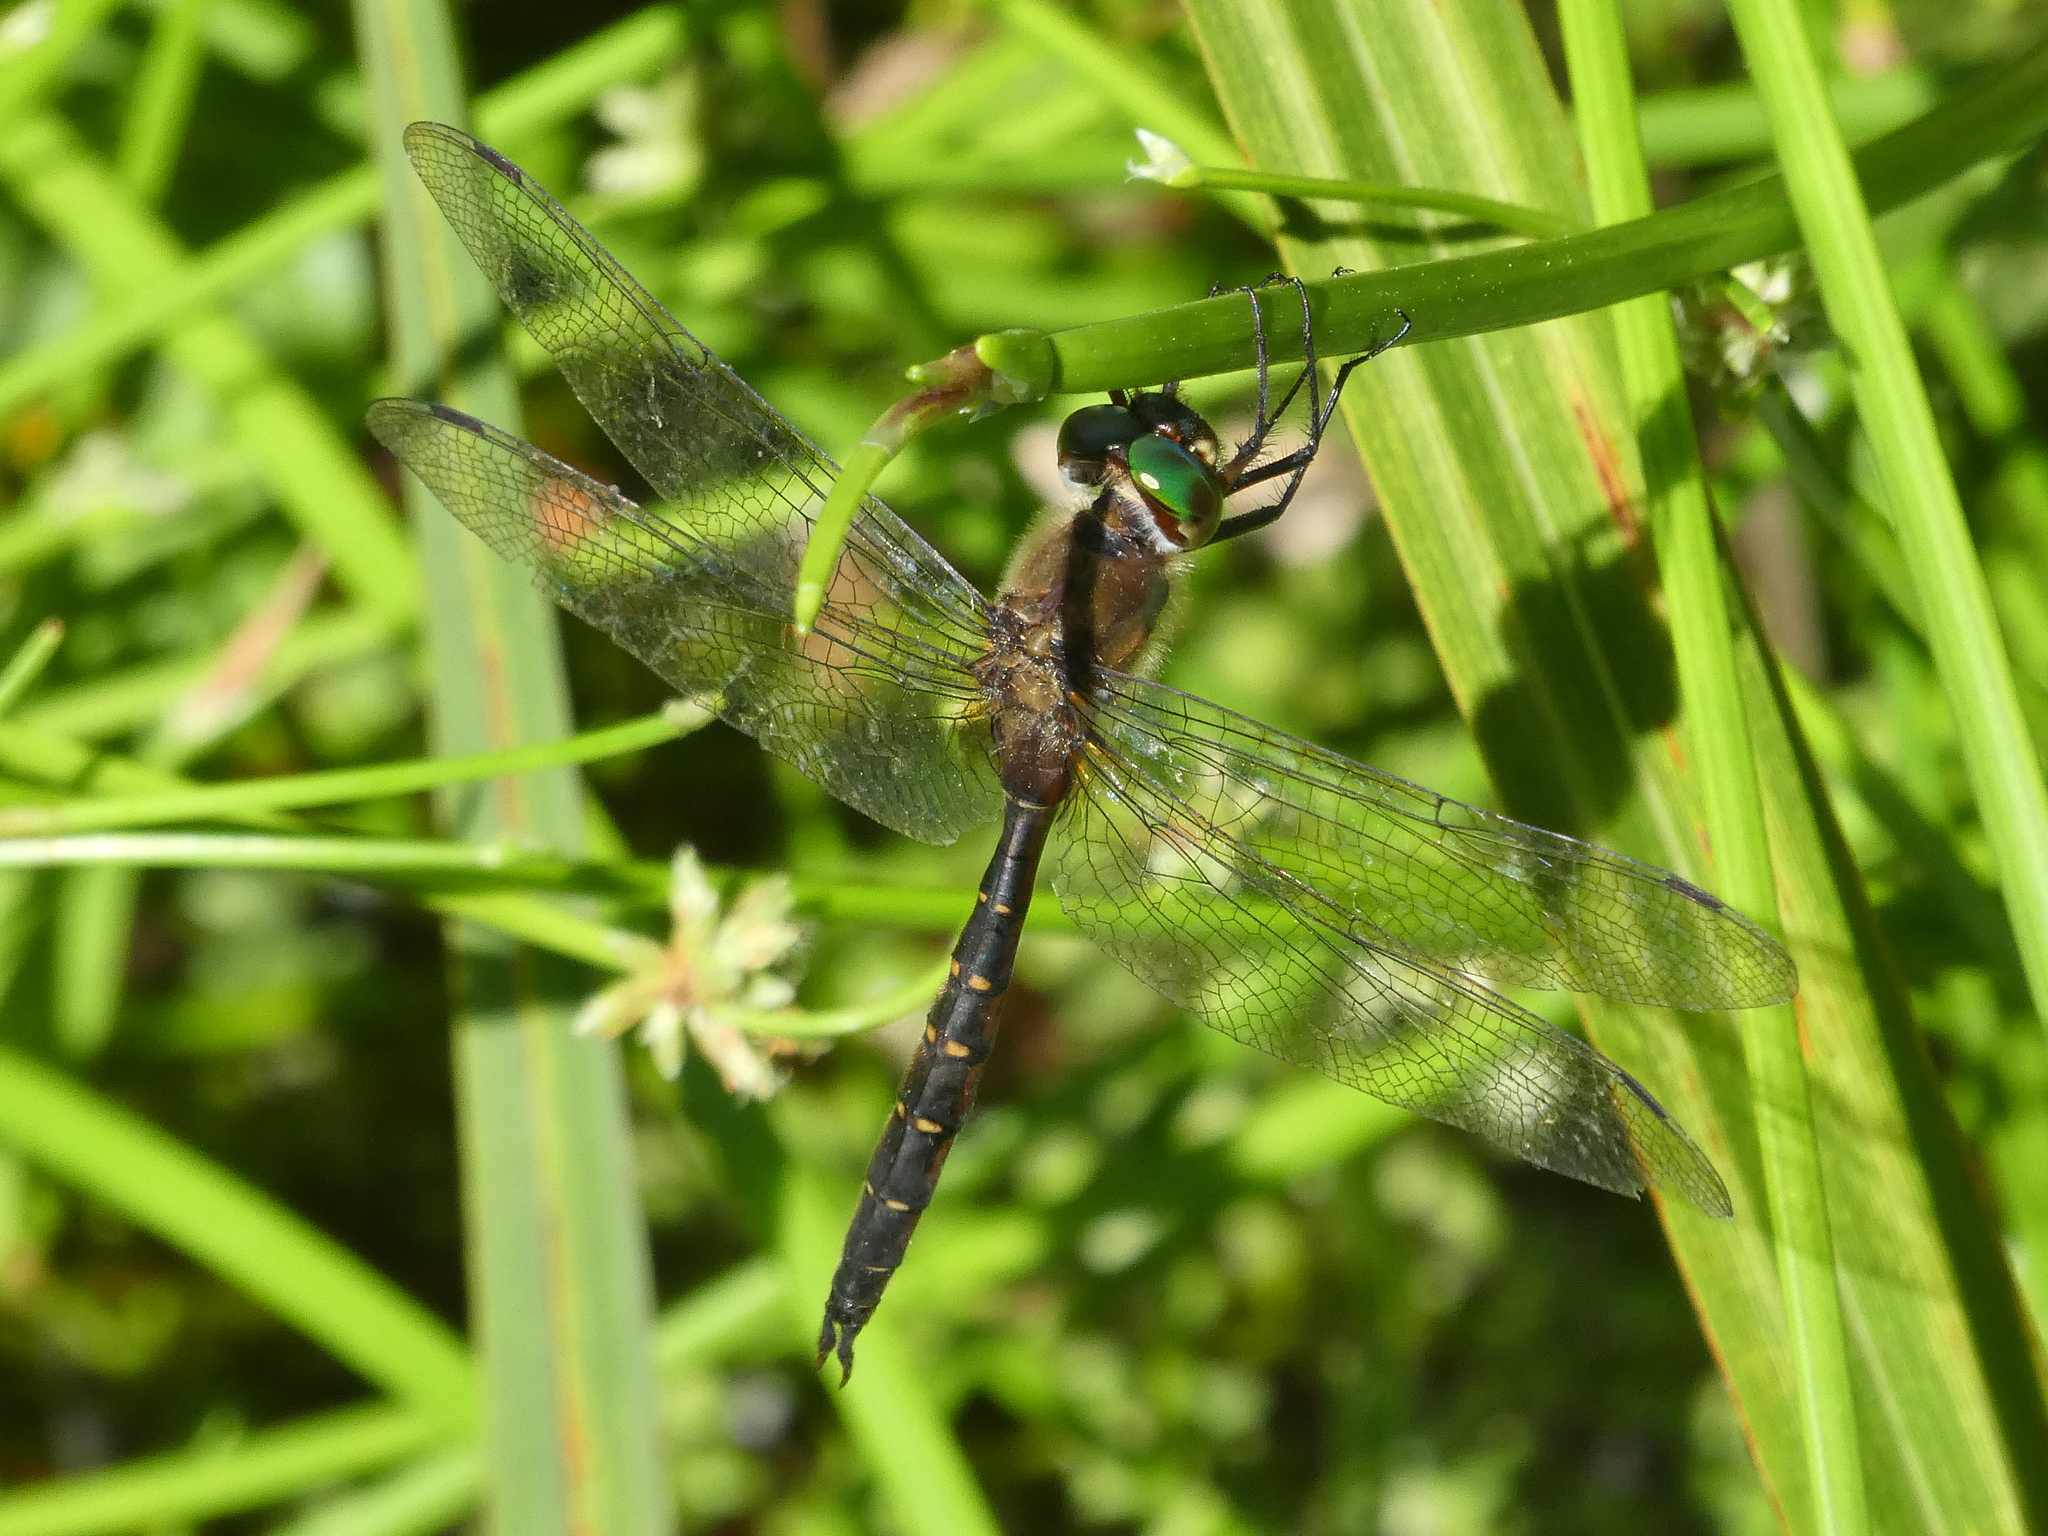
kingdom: Animalia
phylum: Arthropoda
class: Insecta
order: Odonata
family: Corduliidae
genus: Procordulia
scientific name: Procordulia smithii
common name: Ranger dragonfly
